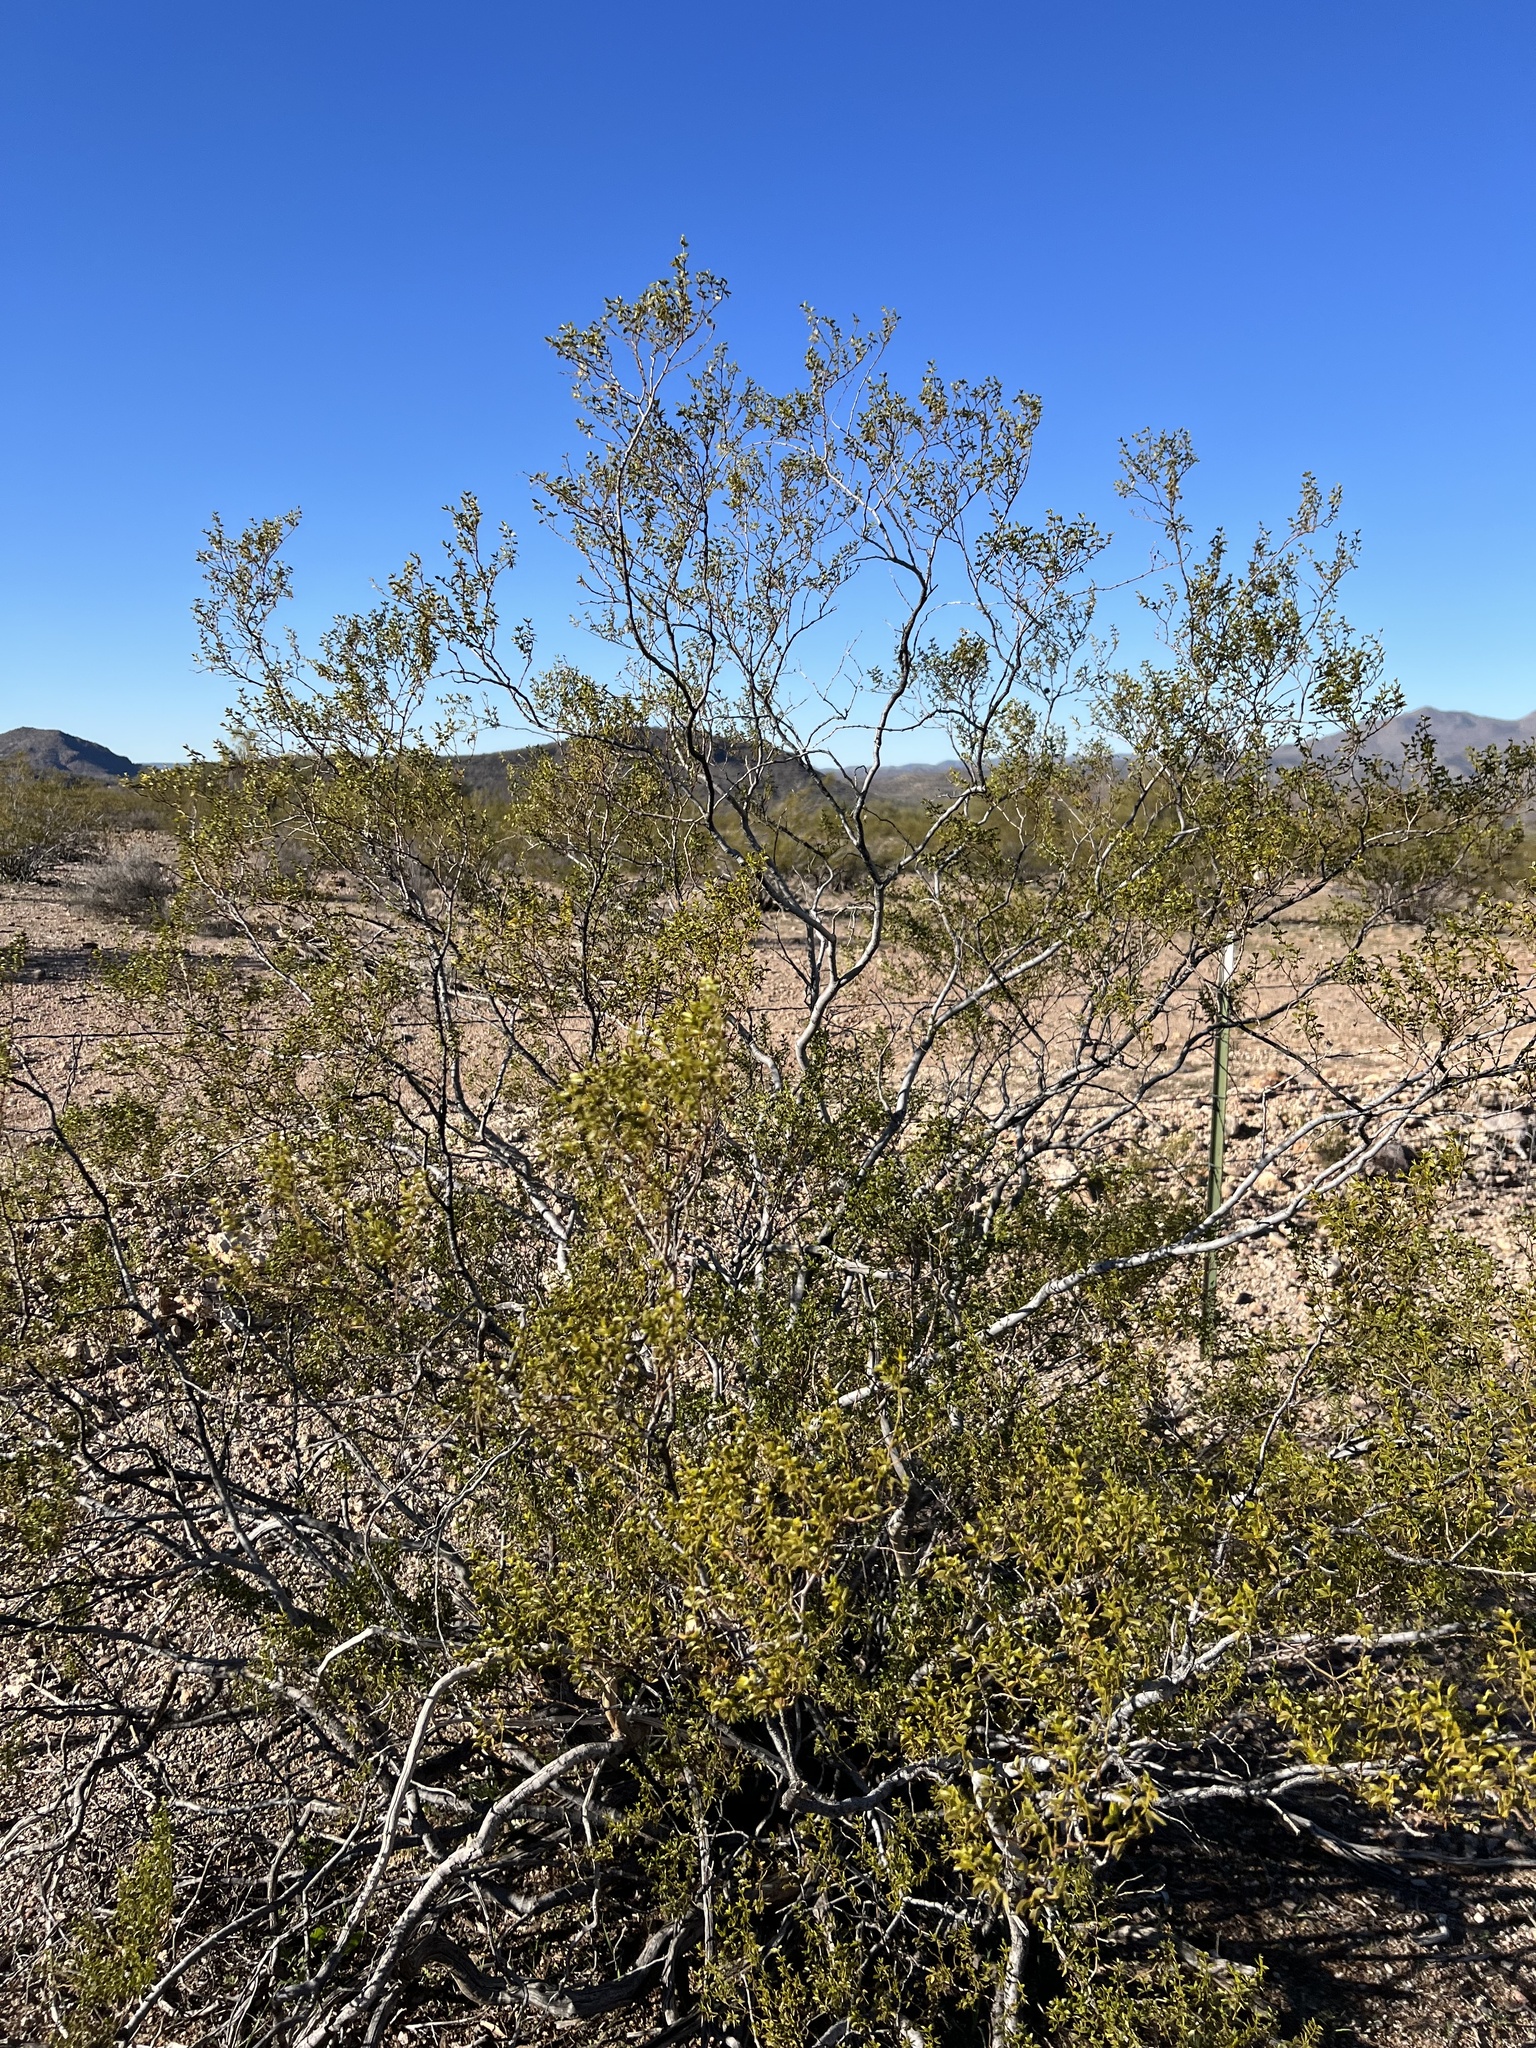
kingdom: Plantae
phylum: Tracheophyta
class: Magnoliopsida
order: Zygophyllales
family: Zygophyllaceae
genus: Larrea
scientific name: Larrea tridentata
